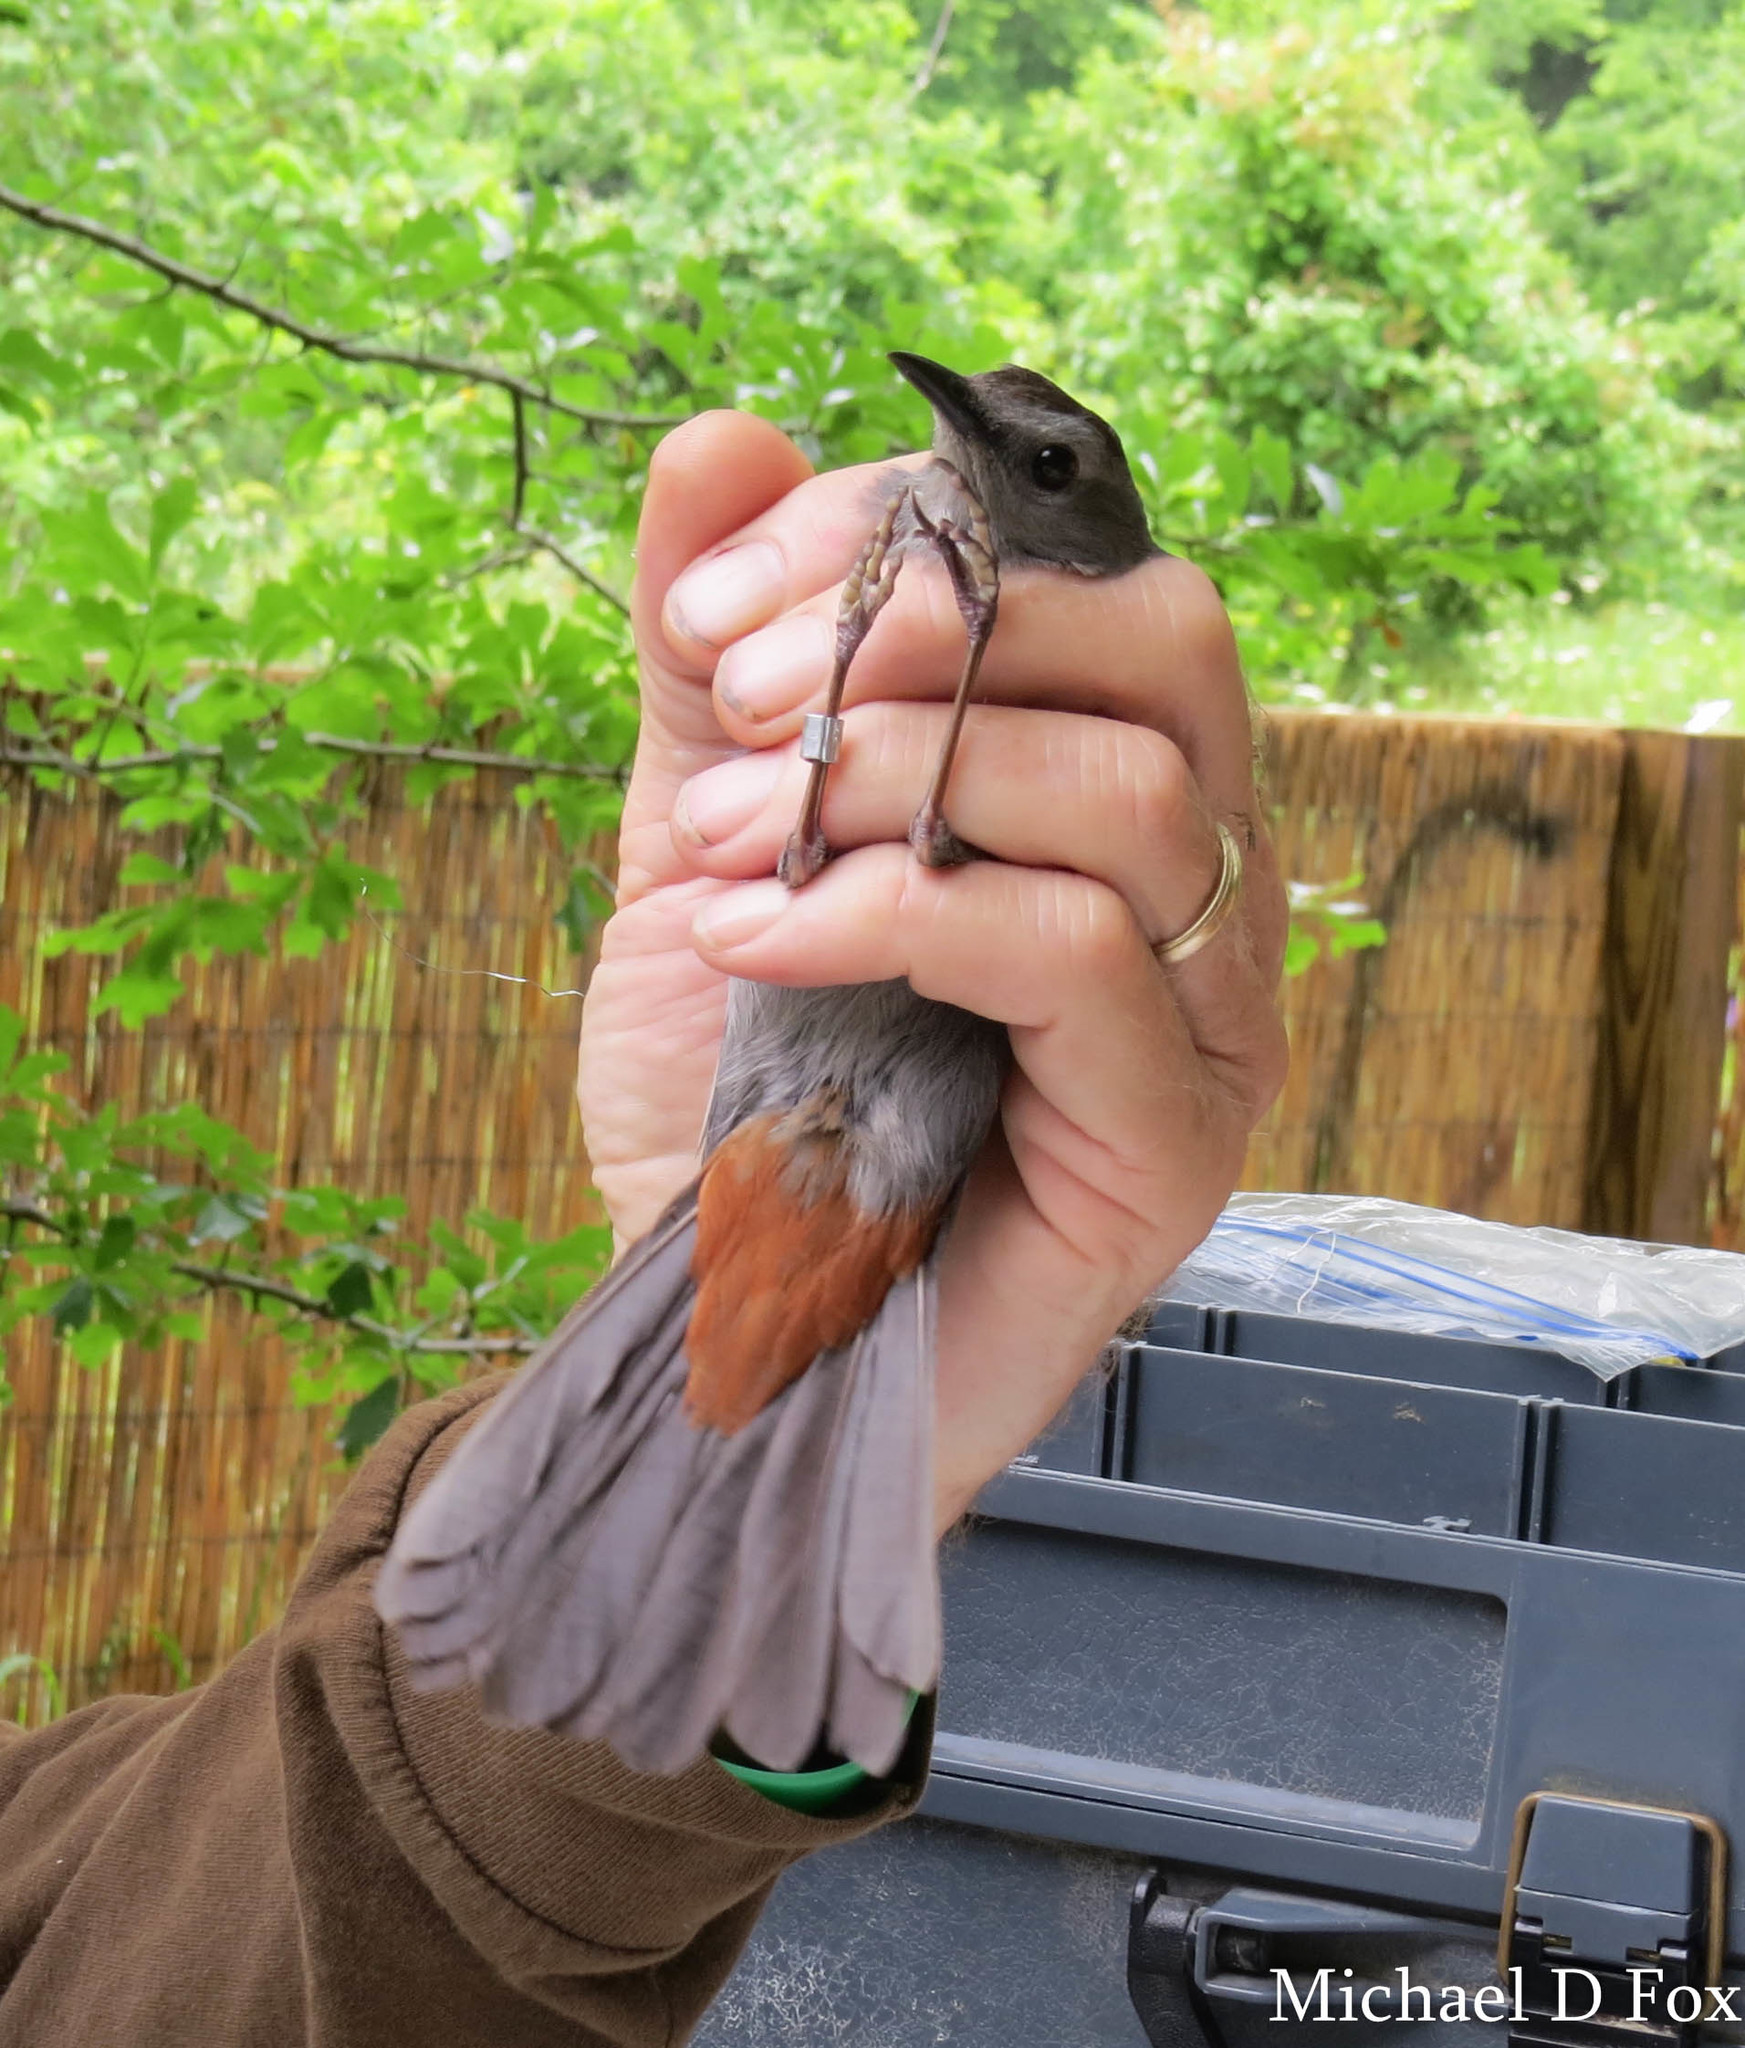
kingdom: Animalia
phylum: Chordata
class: Aves
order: Passeriformes
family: Mimidae
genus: Dumetella
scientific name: Dumetella carolinensis
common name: Gray catbird
